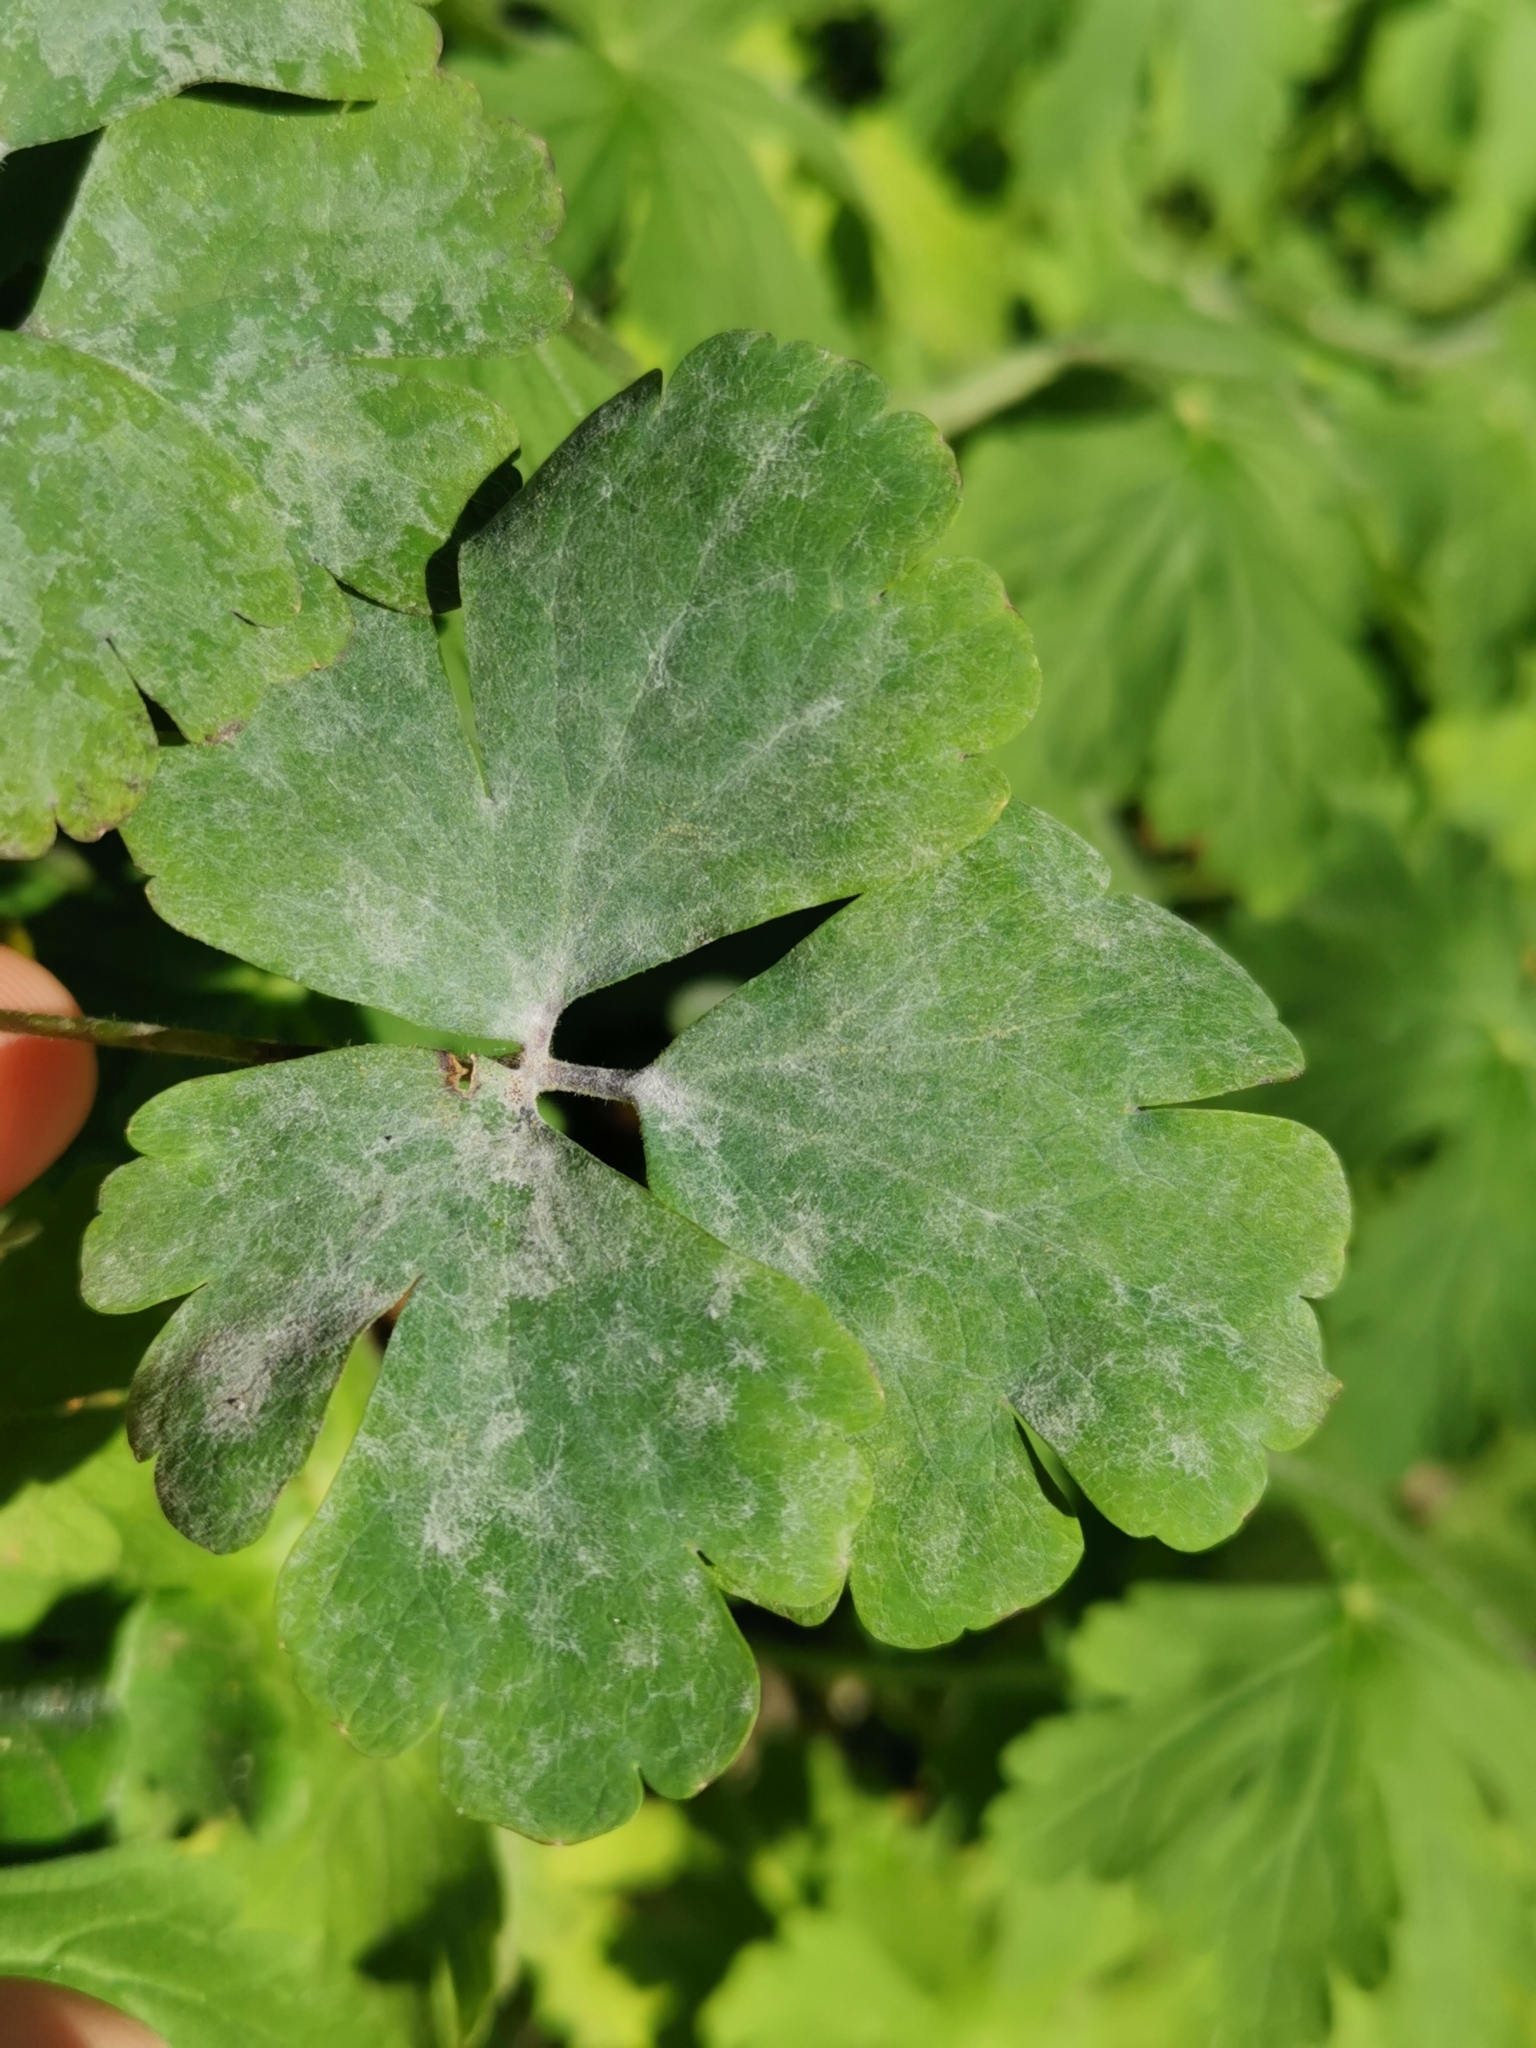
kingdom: Fungi
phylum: Ascomycota
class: Leotiomycetes
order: Helotiales
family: Erysiphaceae
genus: Erysiphe
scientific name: Erysiphe aquilegiae
